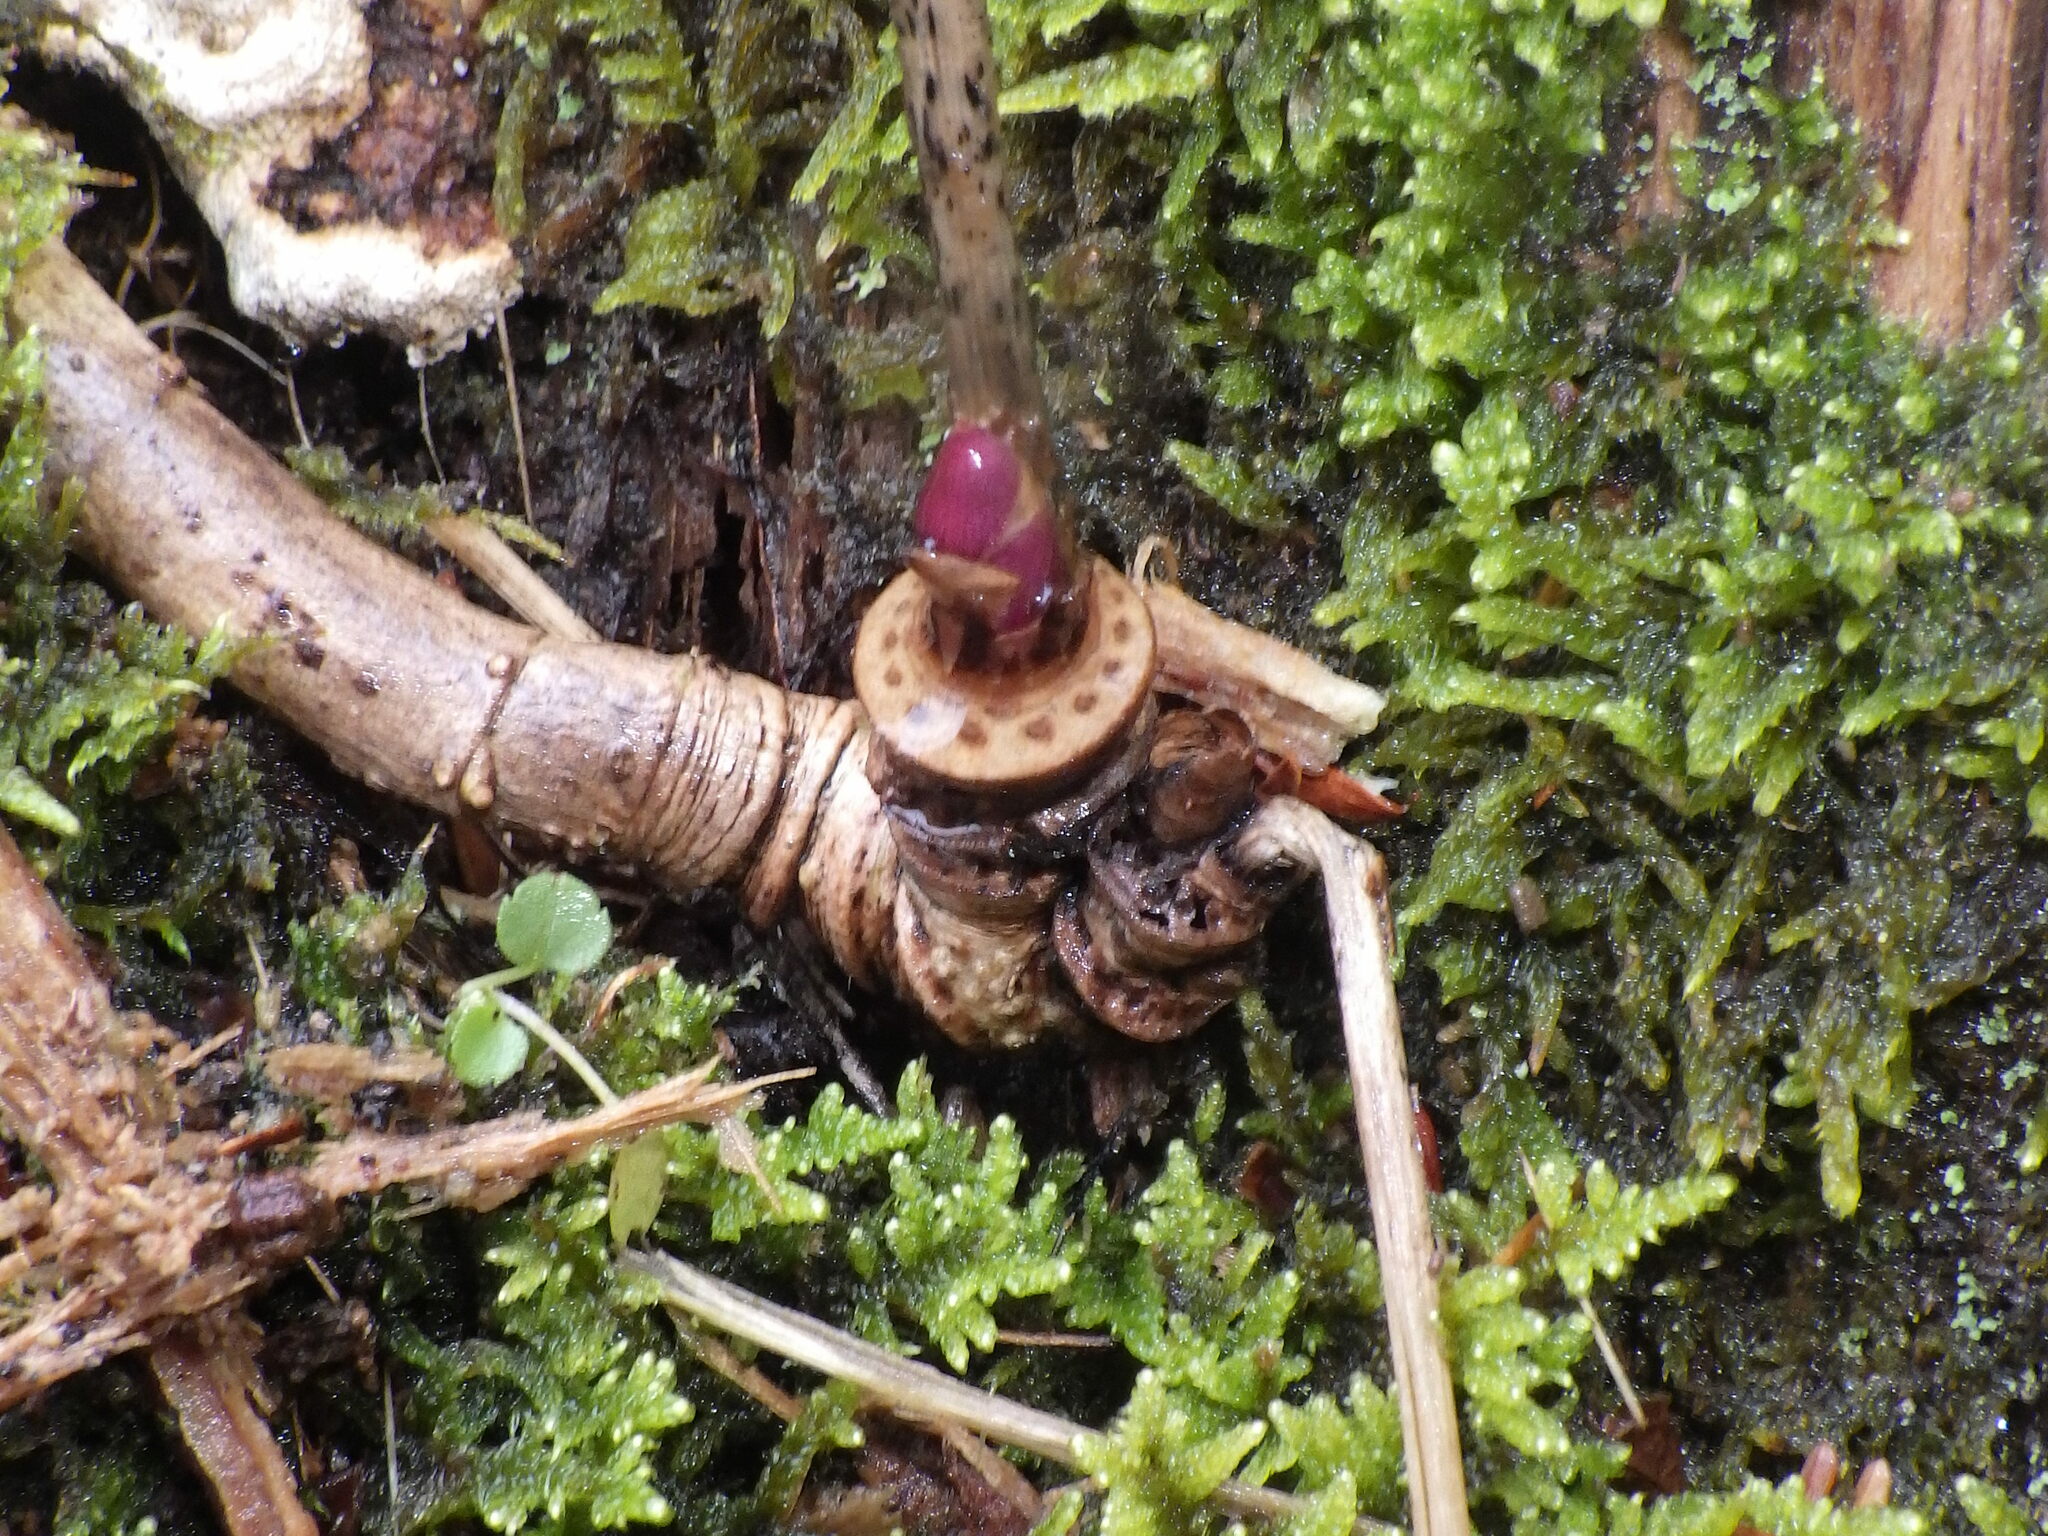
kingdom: Plantae
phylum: Tracheophyta
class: Magnoliopsida
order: Apiales
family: Araliaceae
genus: Aralia
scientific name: Aralia nudicaulis
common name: Wild sarsaparilla
